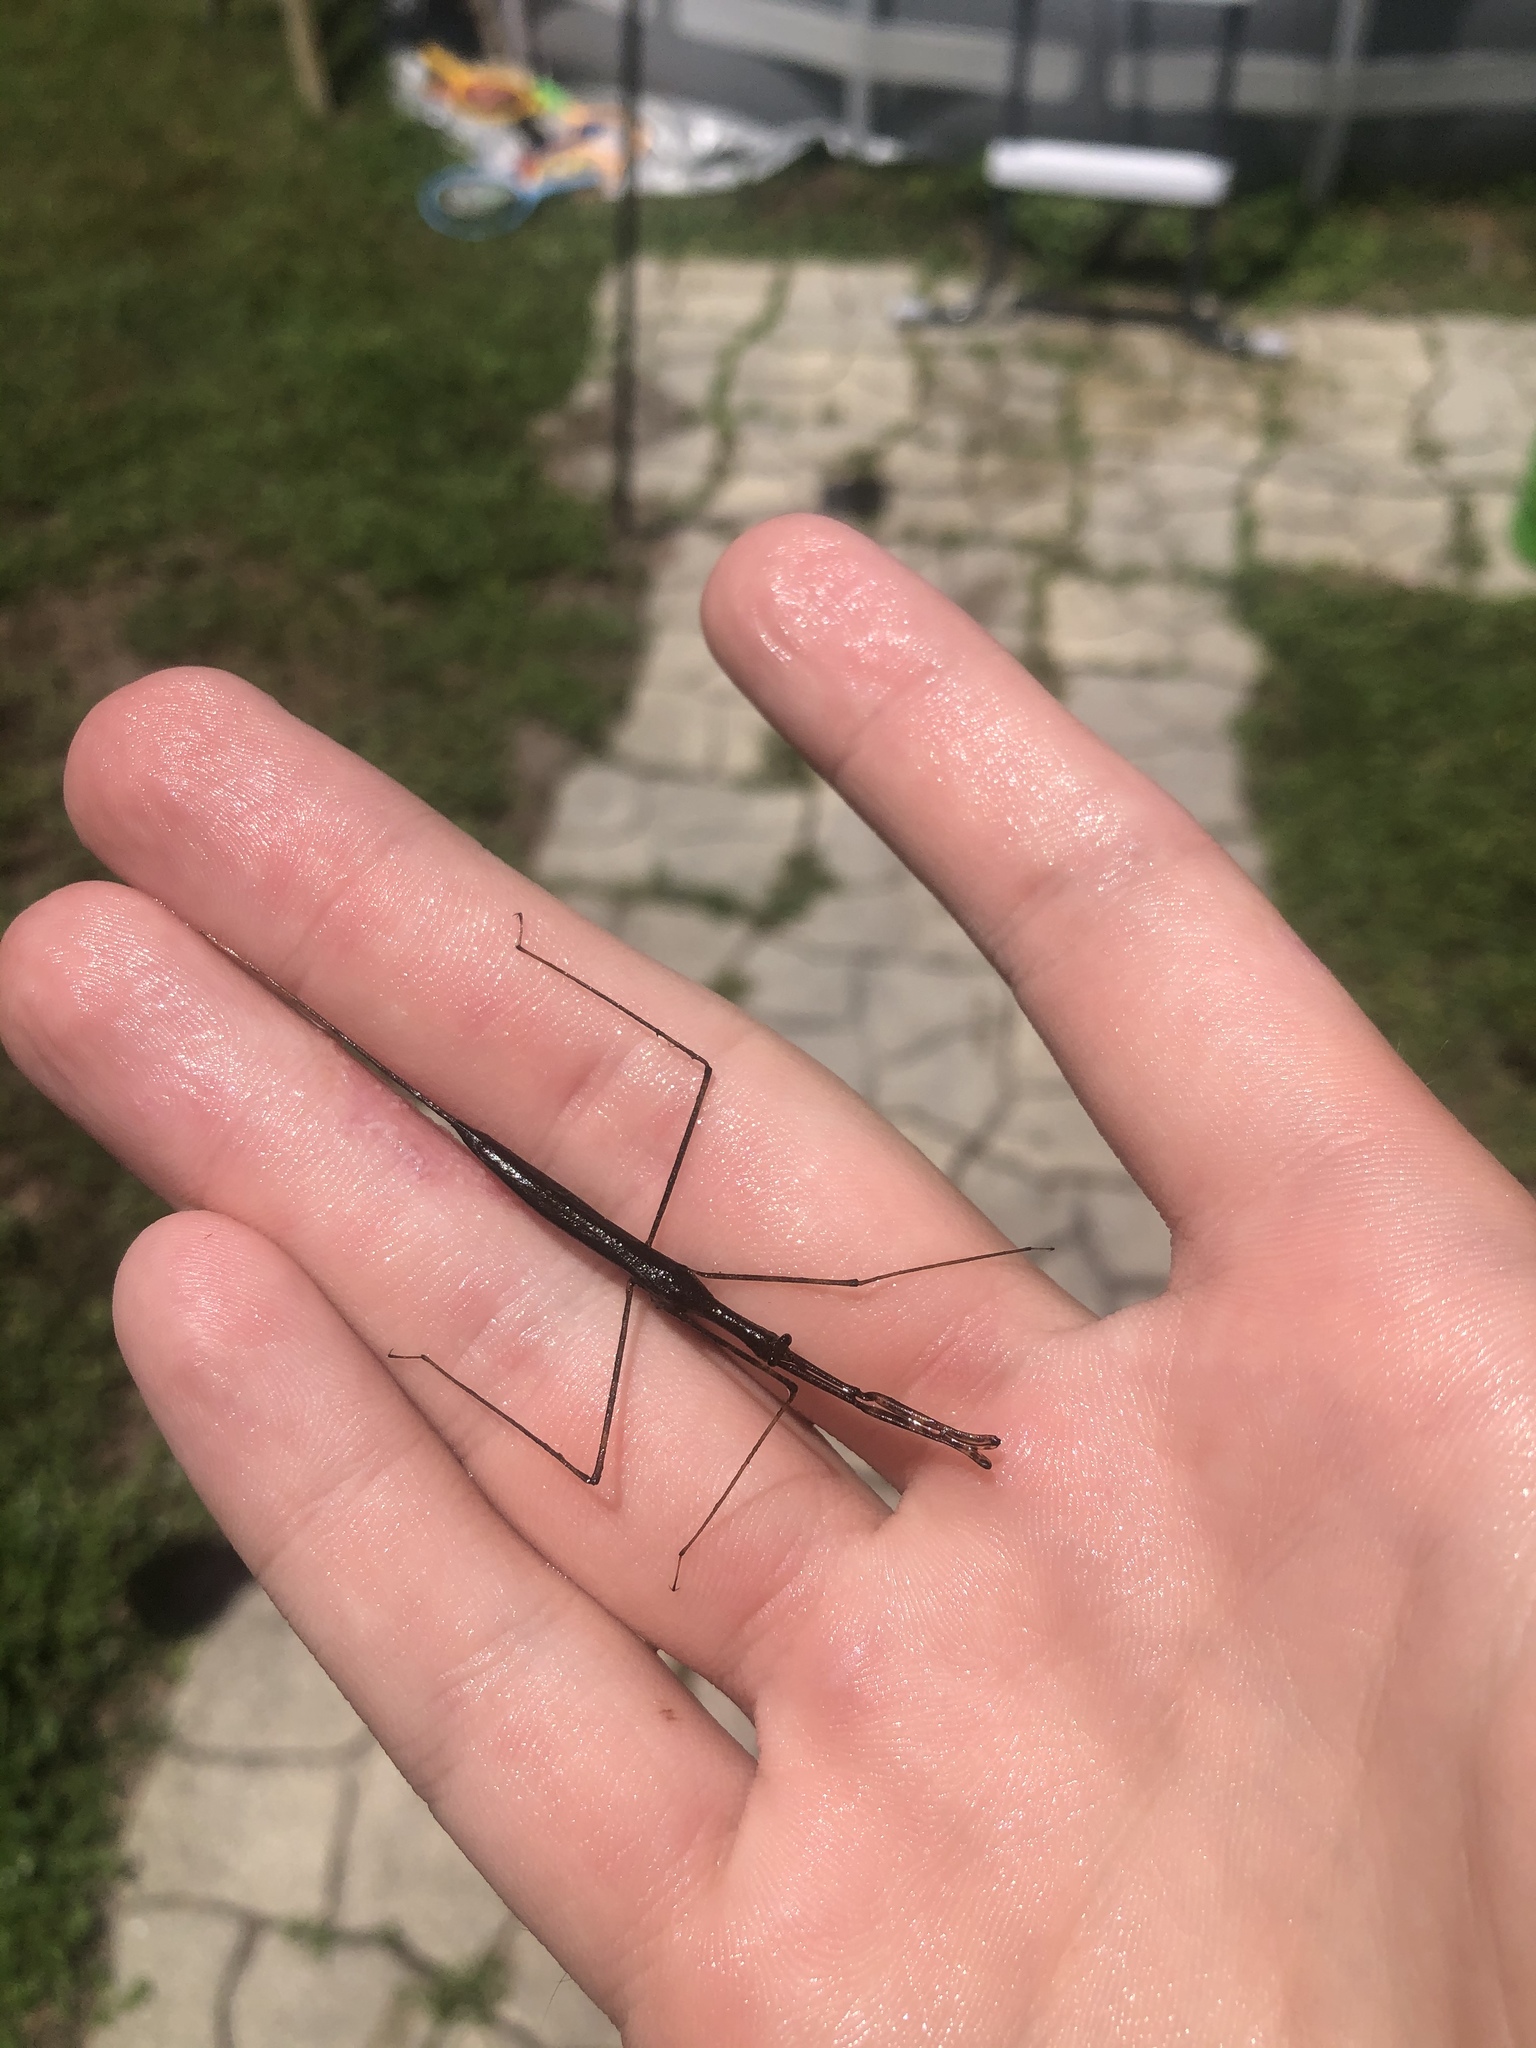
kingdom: Animalia
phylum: Arthropoda
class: Insecta
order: Hemiptera
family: Nepidae
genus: Ranatra
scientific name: Ranatra
